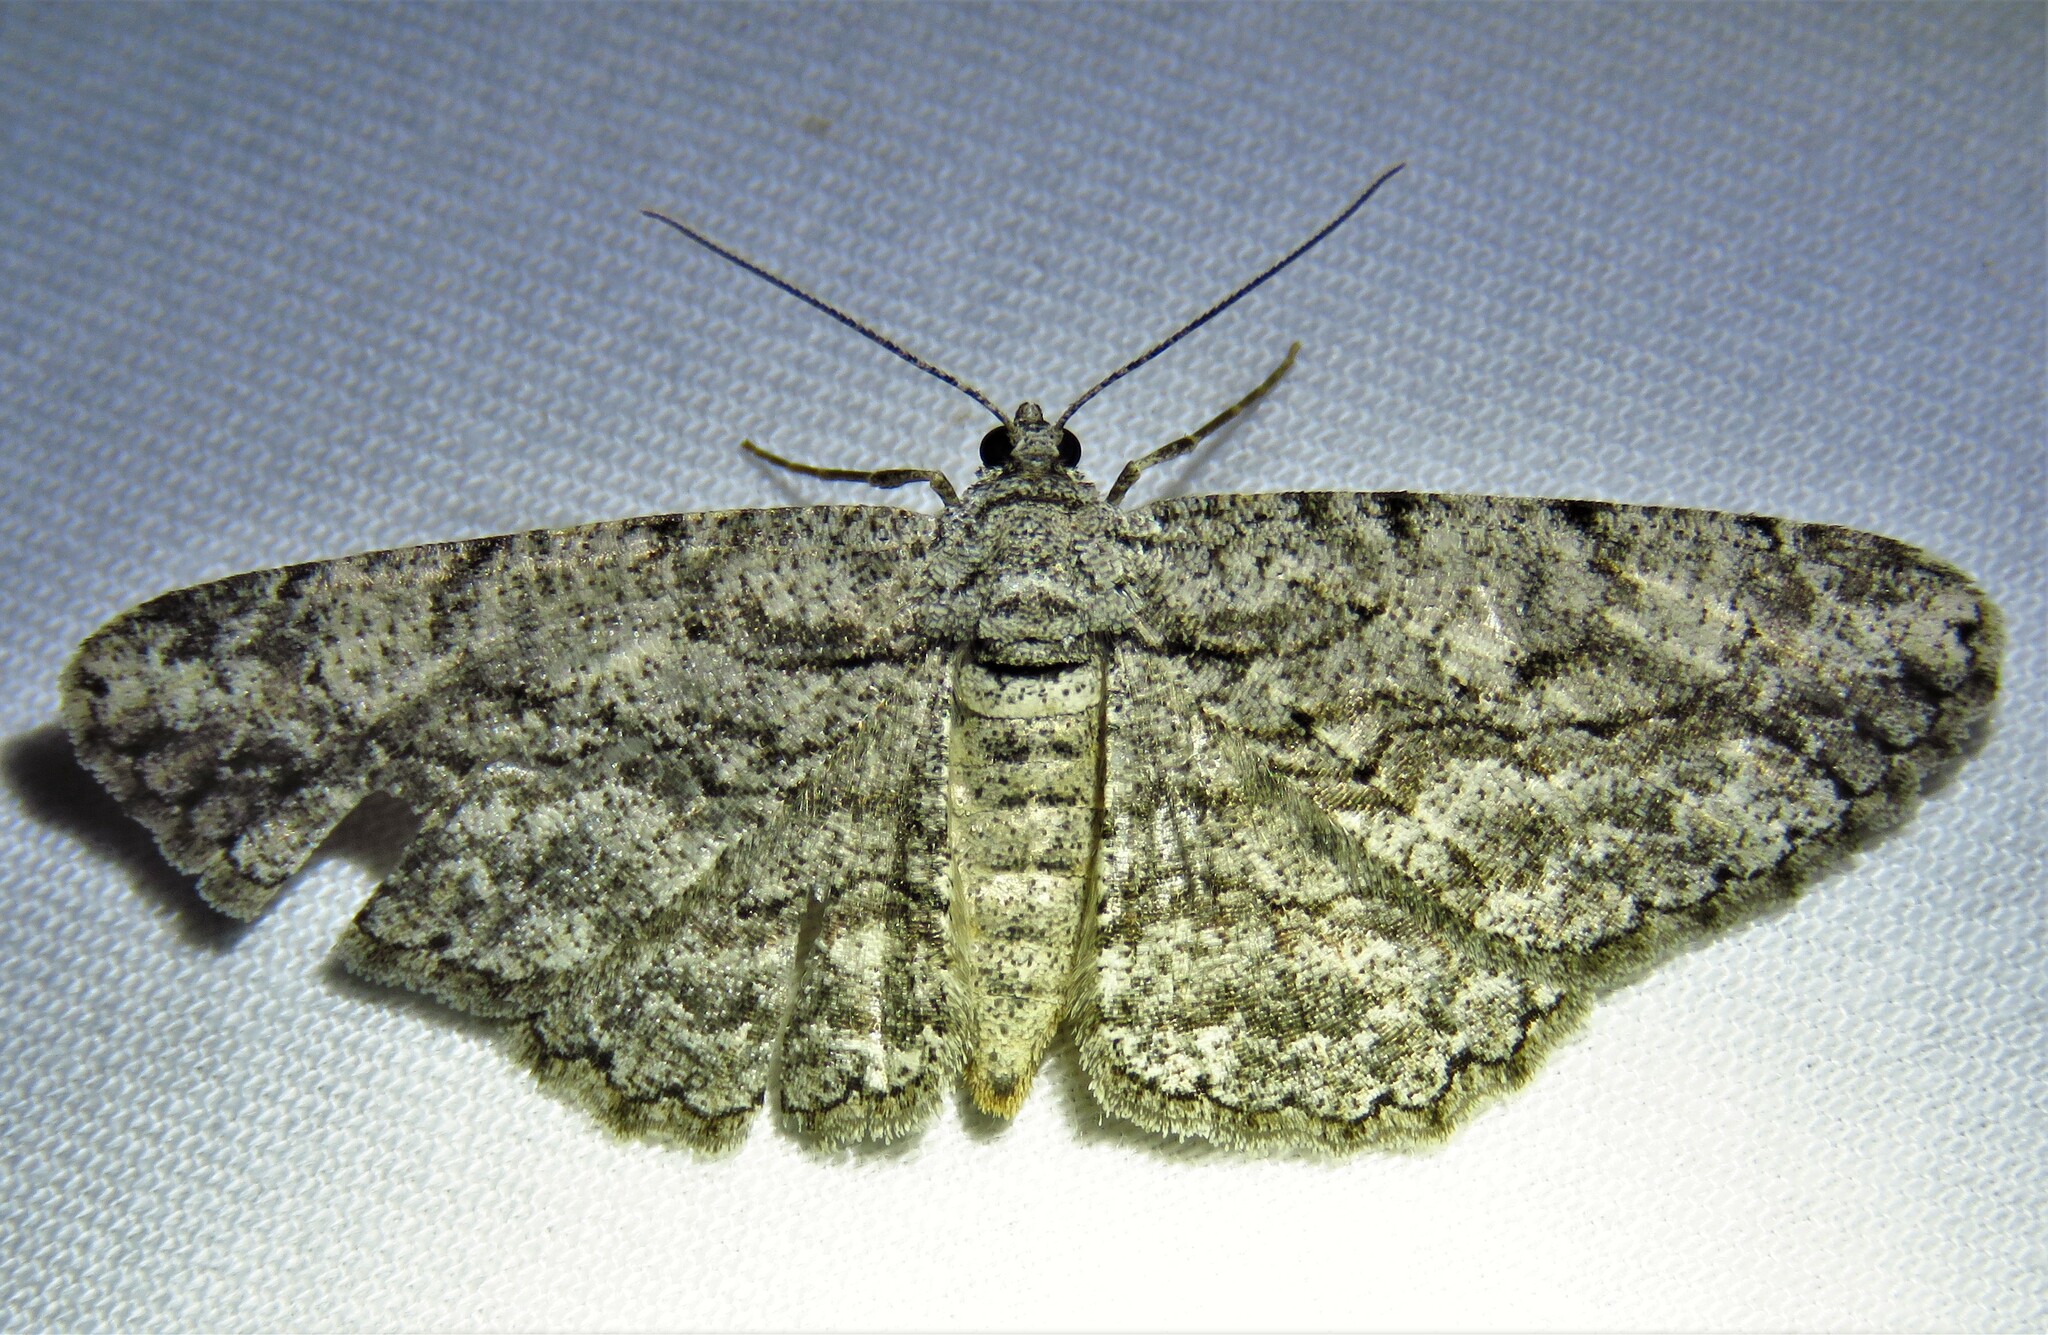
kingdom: Animalia
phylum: Arthropoda
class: Insecta
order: Lepidoptera
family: Geometridae
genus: Anavitrinella
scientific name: Anavitrinella pampinaria
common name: Common gray
